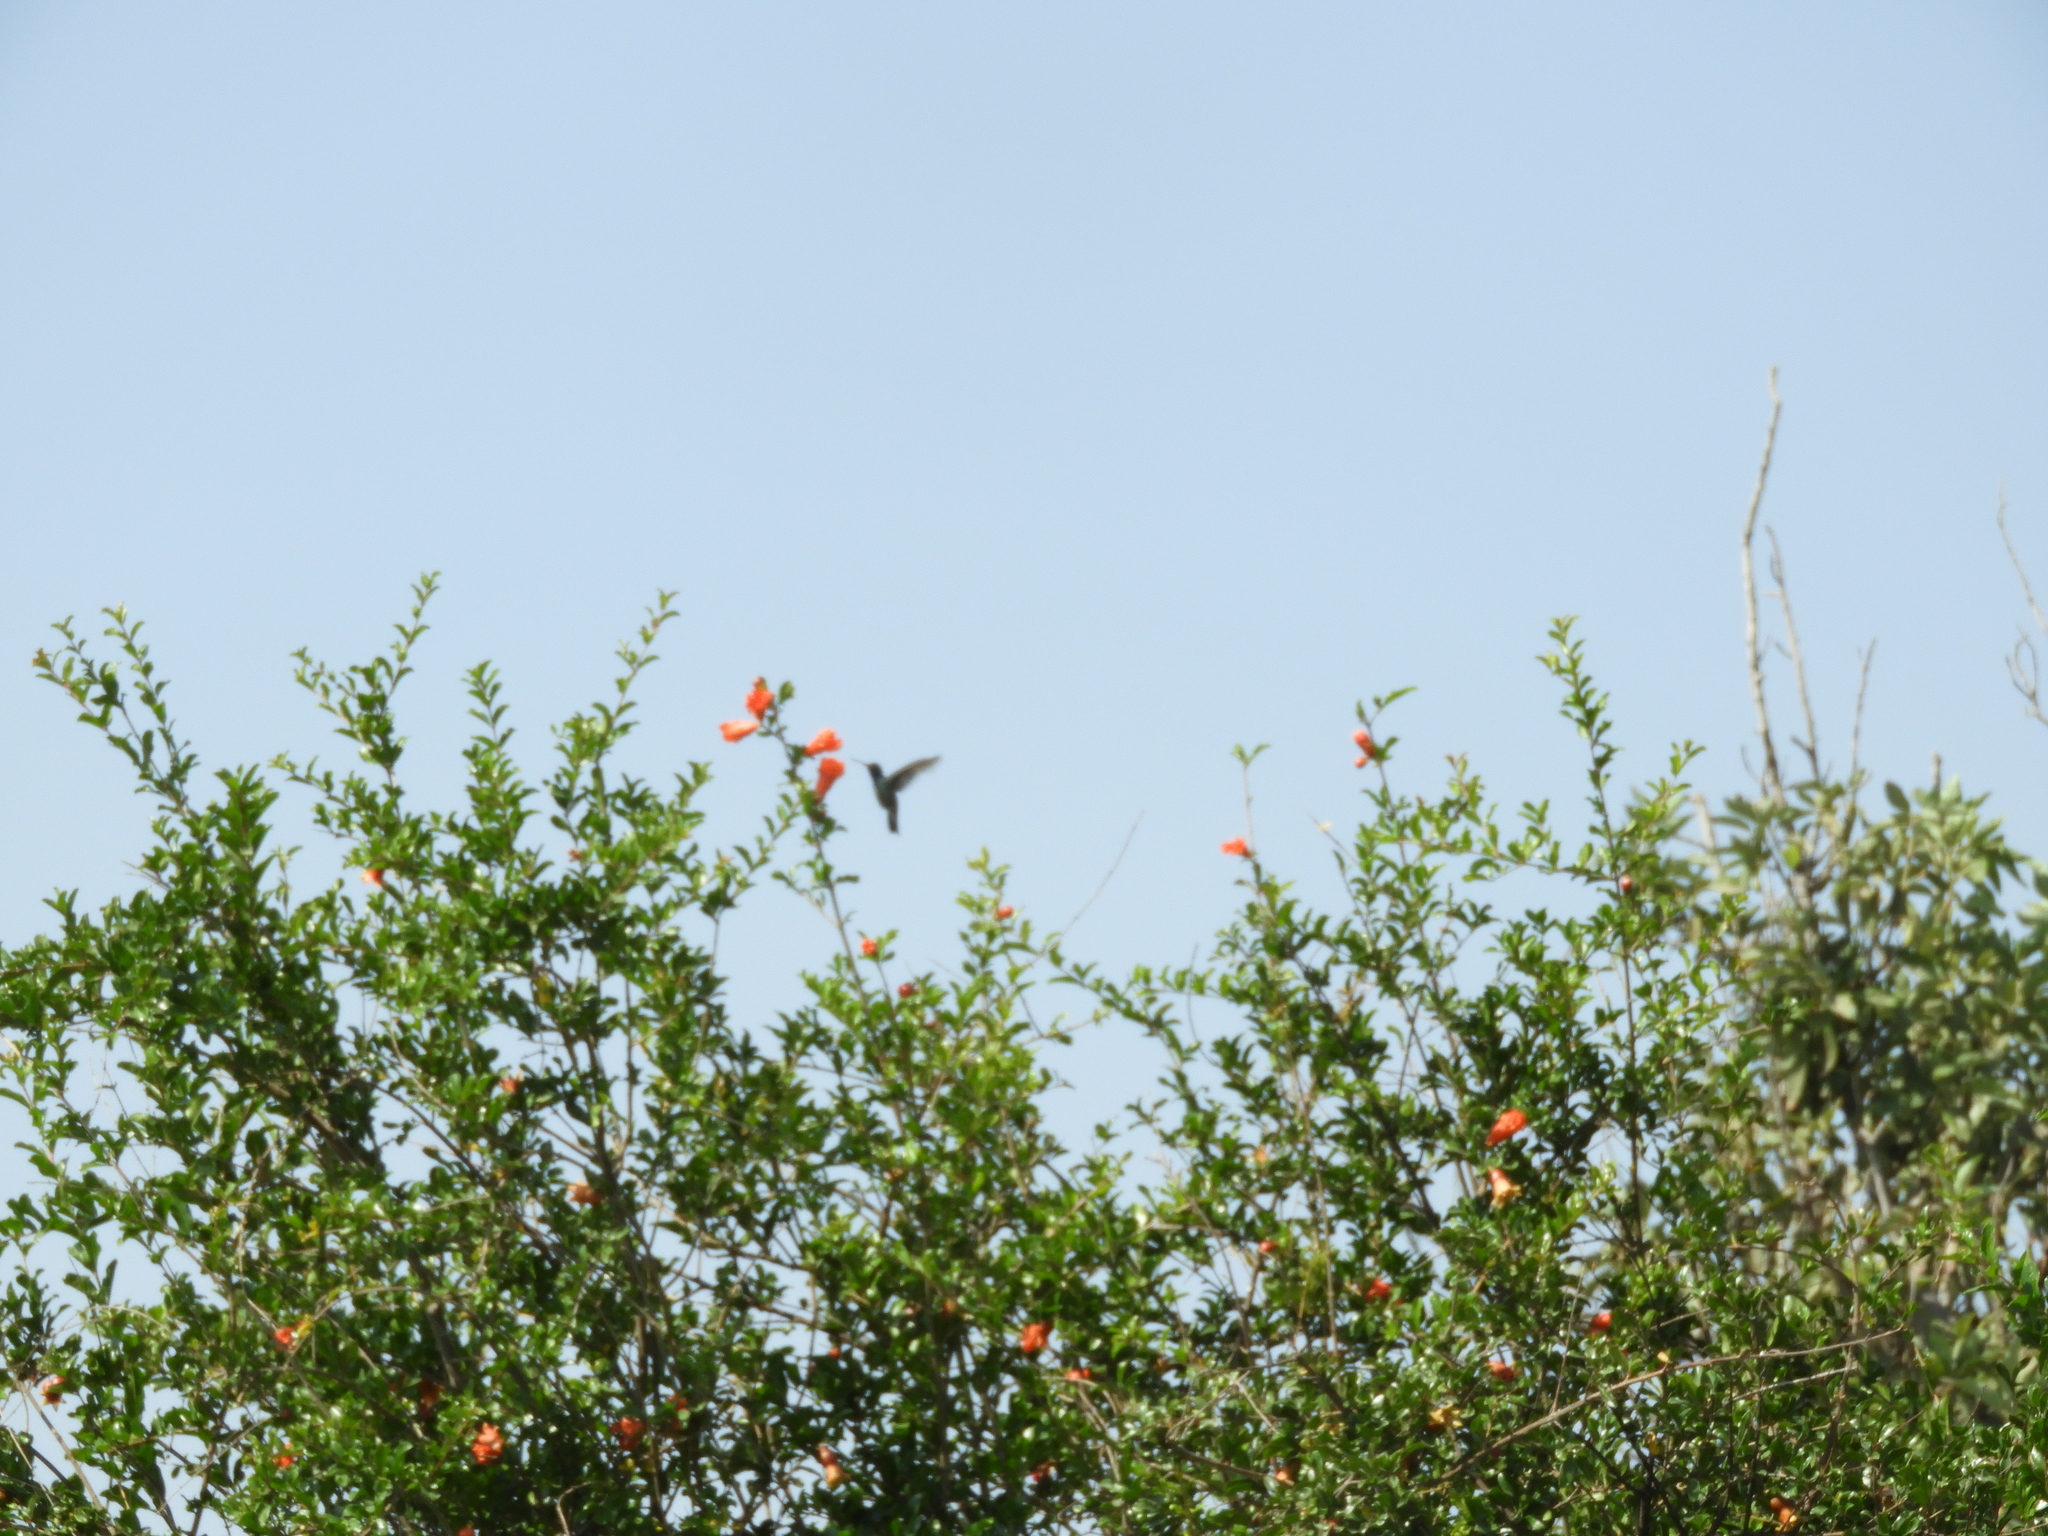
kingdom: Animalia
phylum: Chordata
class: Aves
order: Apodiformes
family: Trochilidae
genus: Cynanthus
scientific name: Cynanthus latirostris
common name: Broad-billed hummingbird
